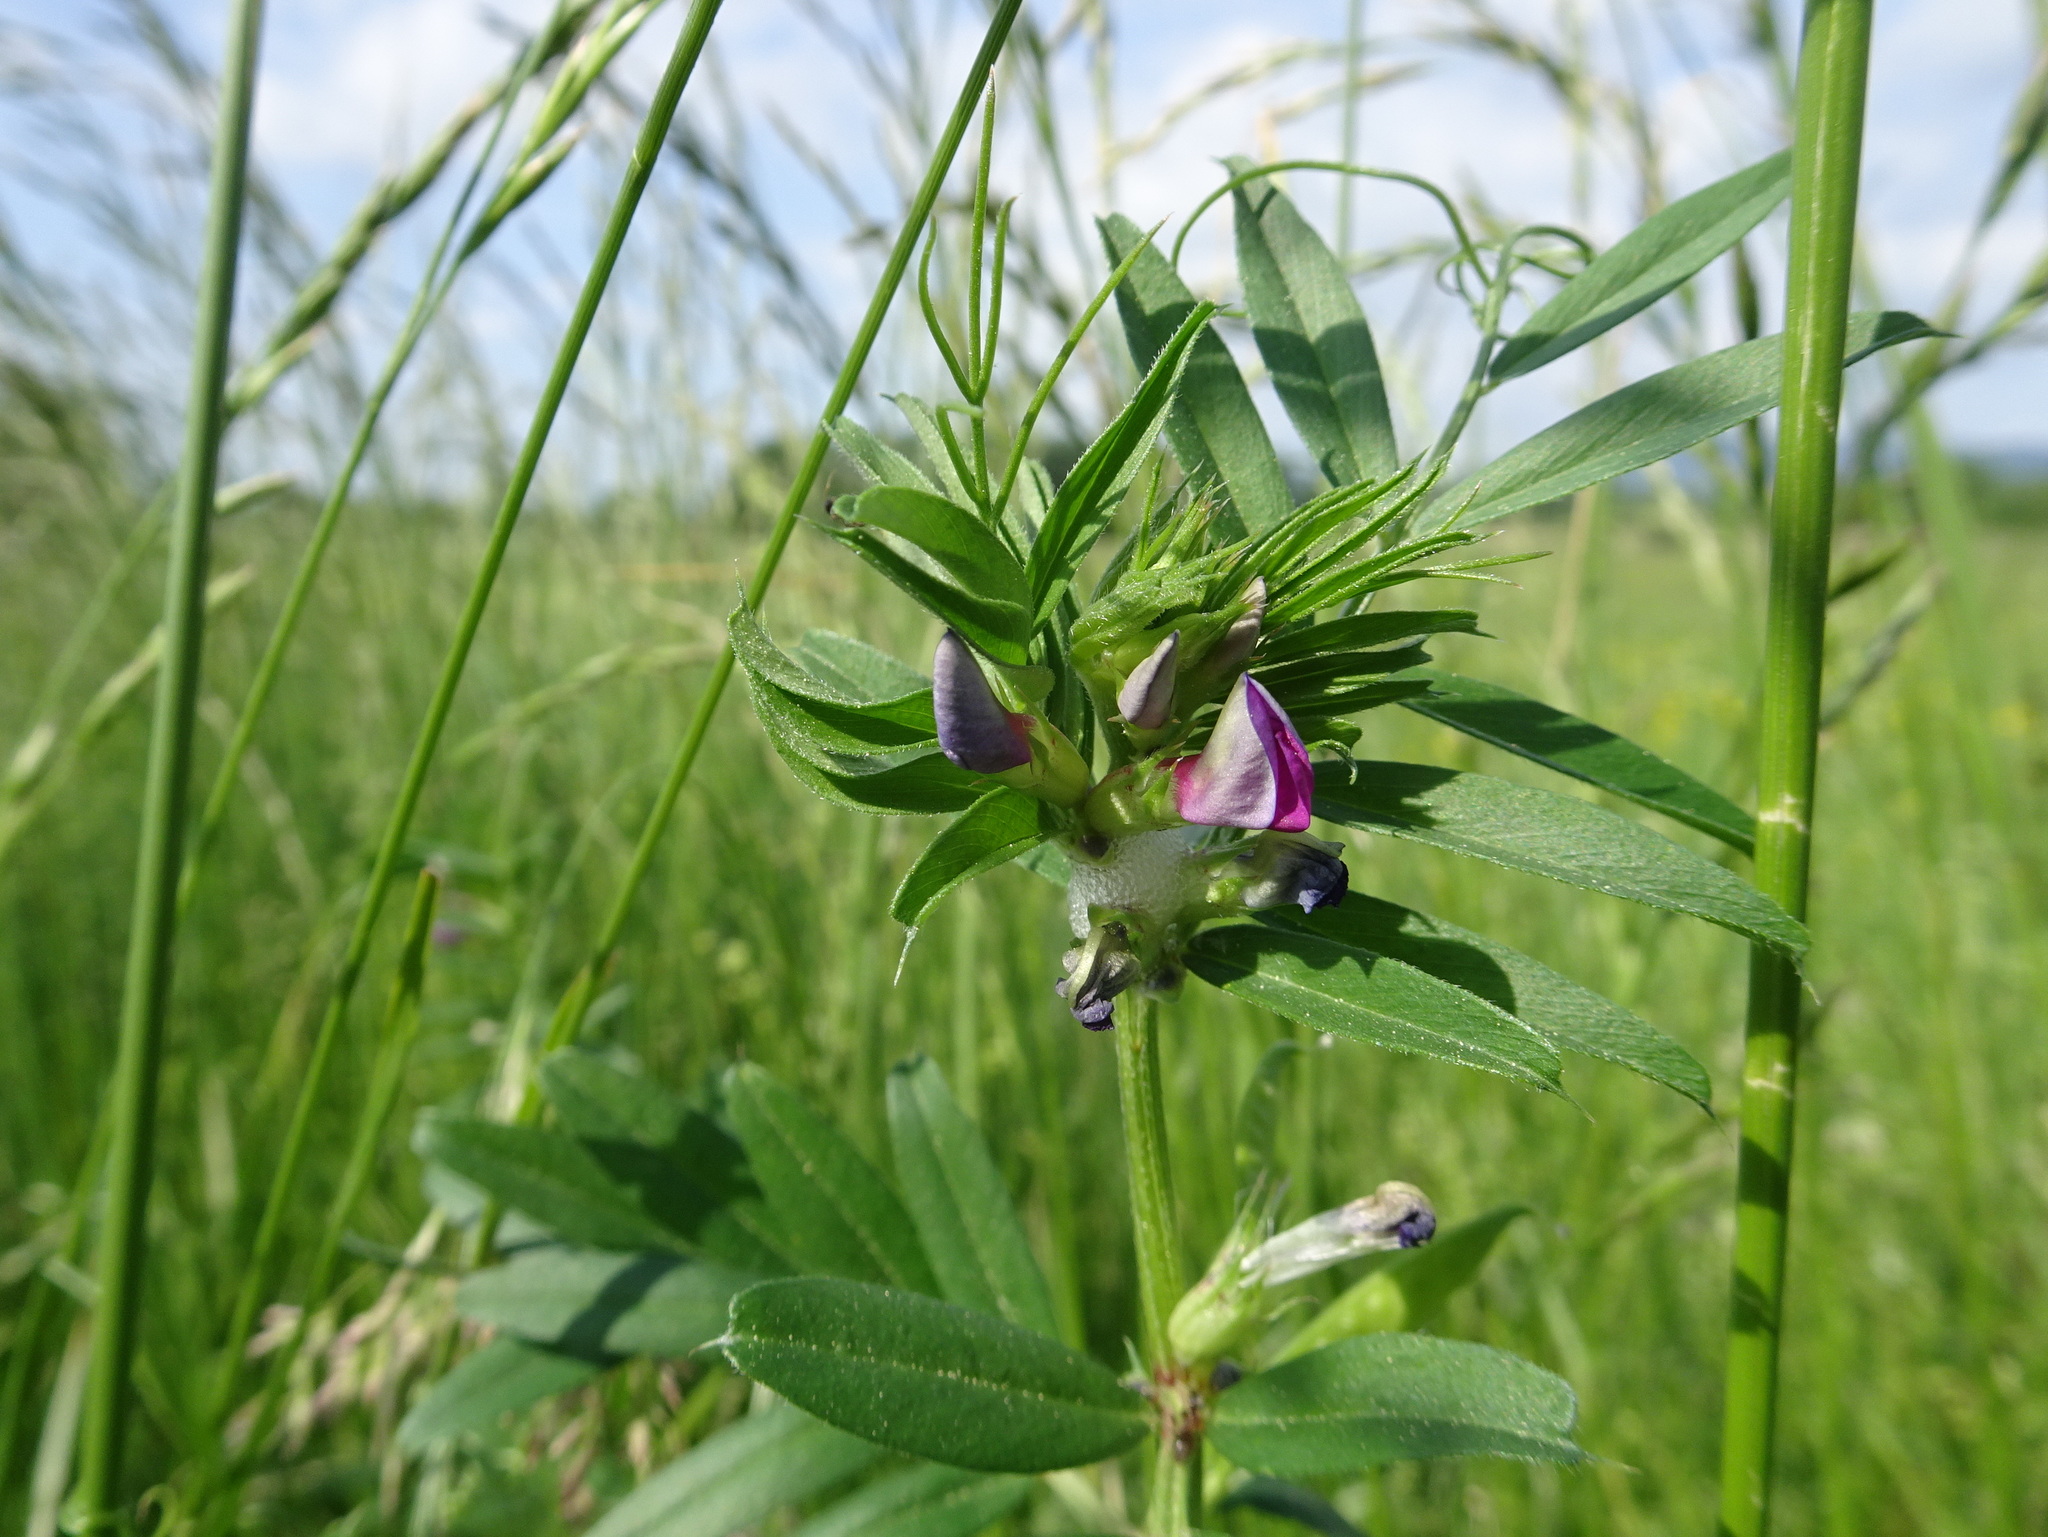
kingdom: Plantae
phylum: Tracheophyta
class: Magnoliopsida
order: Fabales
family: Fabaceae
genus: Vicia
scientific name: Vicia sativa
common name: Garden vetch
